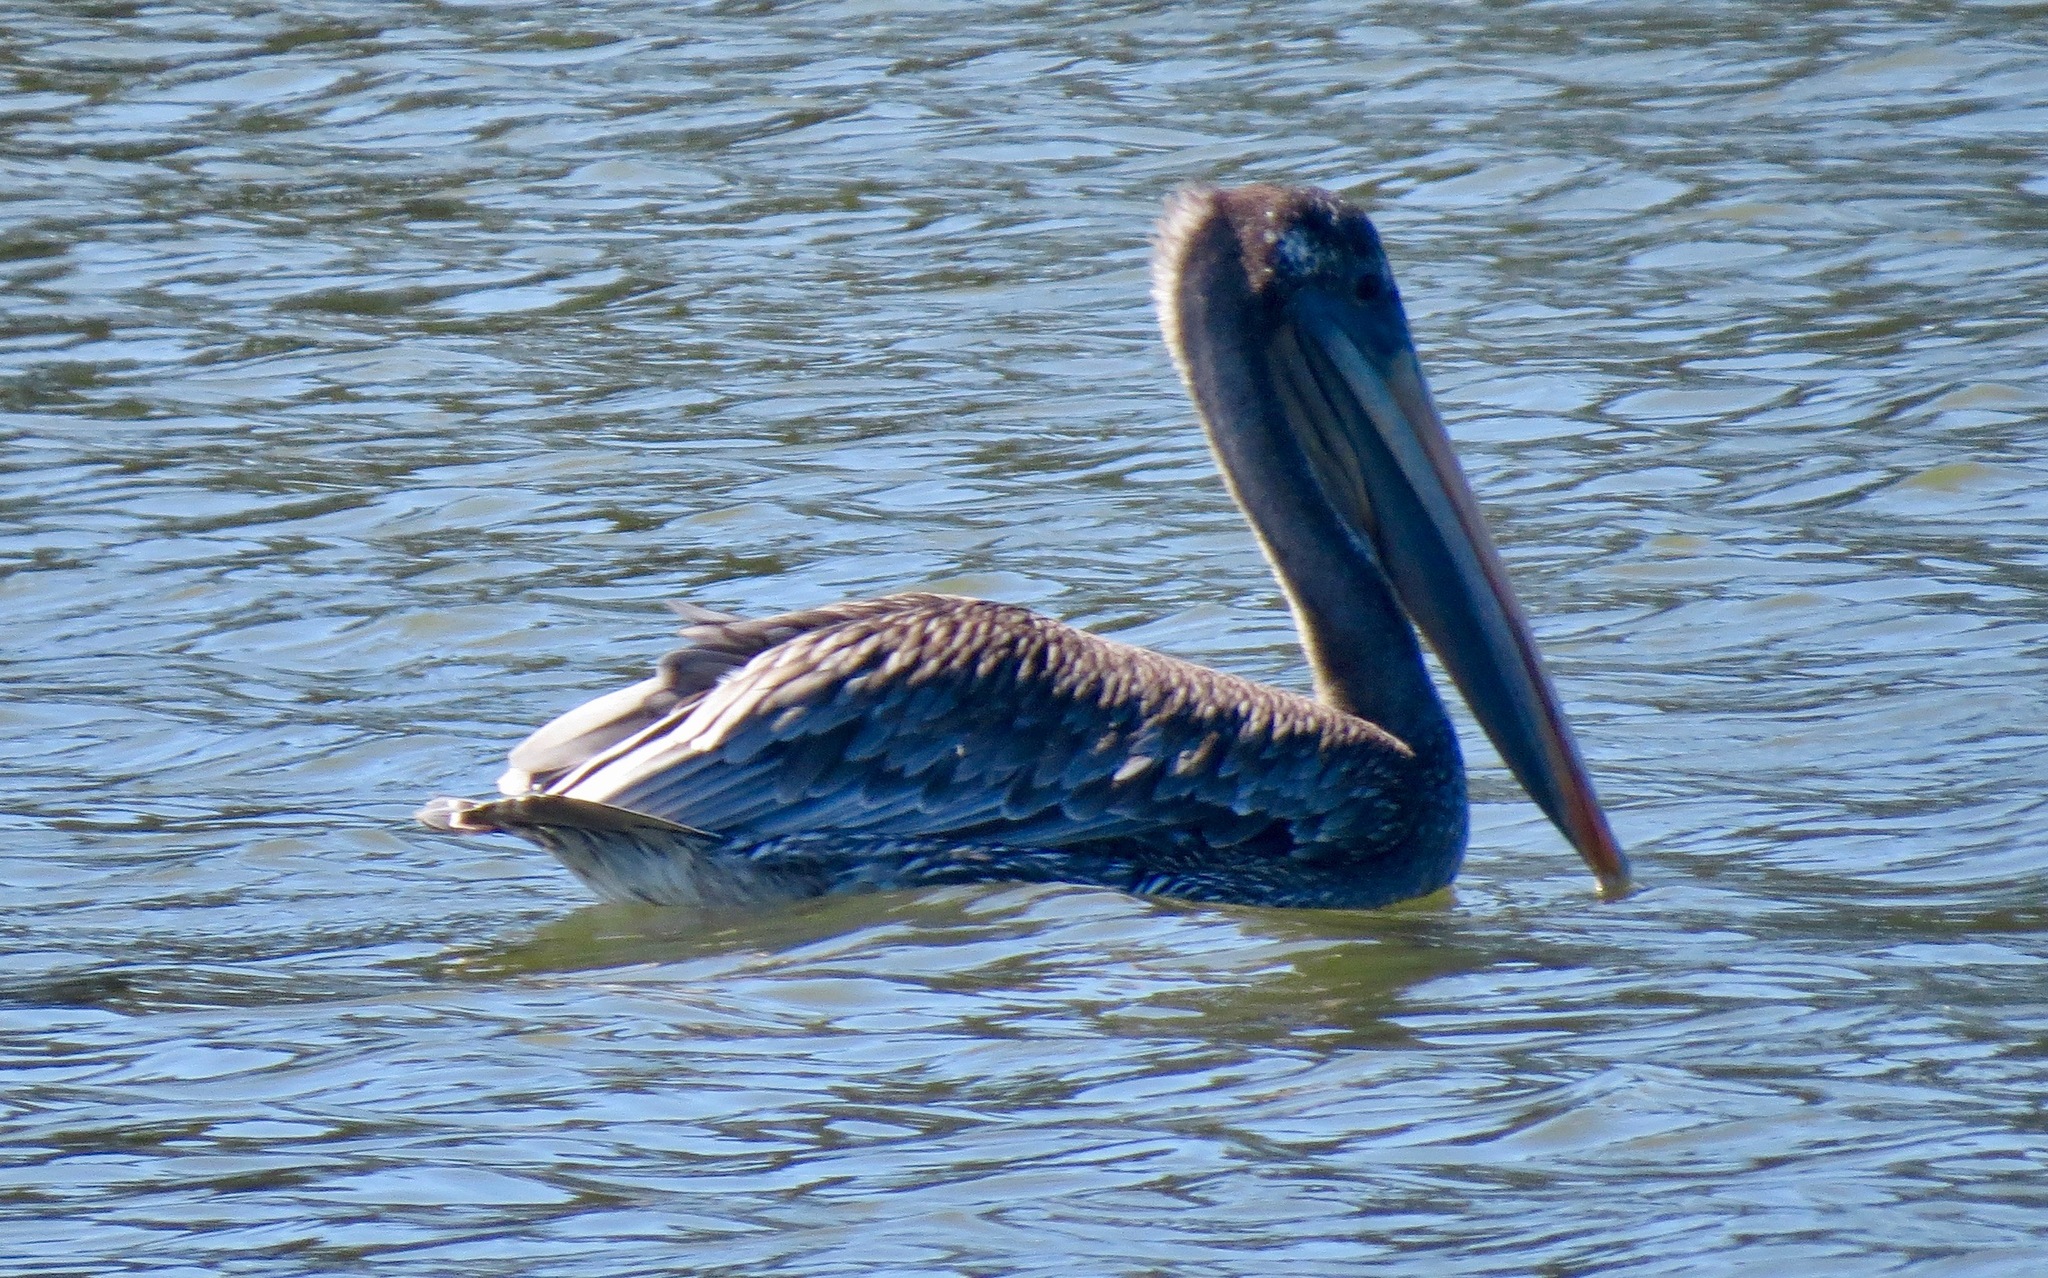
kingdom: Animalia
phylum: Chordata
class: Aves
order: Pelecaniformes
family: Pelecanidae
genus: Pelecanus
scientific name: Pelecanus occidentalis
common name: Brown pelican
